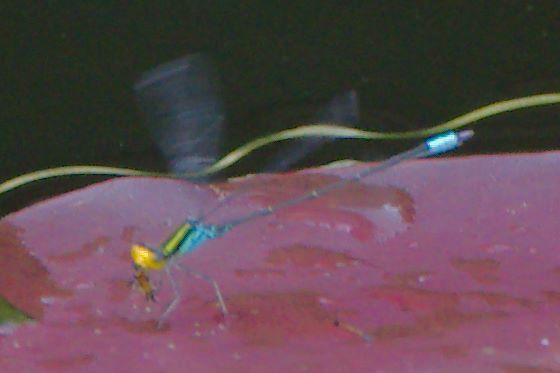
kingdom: Animalia
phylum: Arthropoda
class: Insecta
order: Odonata
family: Coenagrionidae
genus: Neoerythromma
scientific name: Neoerythromma cultellatum
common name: Caribbean yellowface
